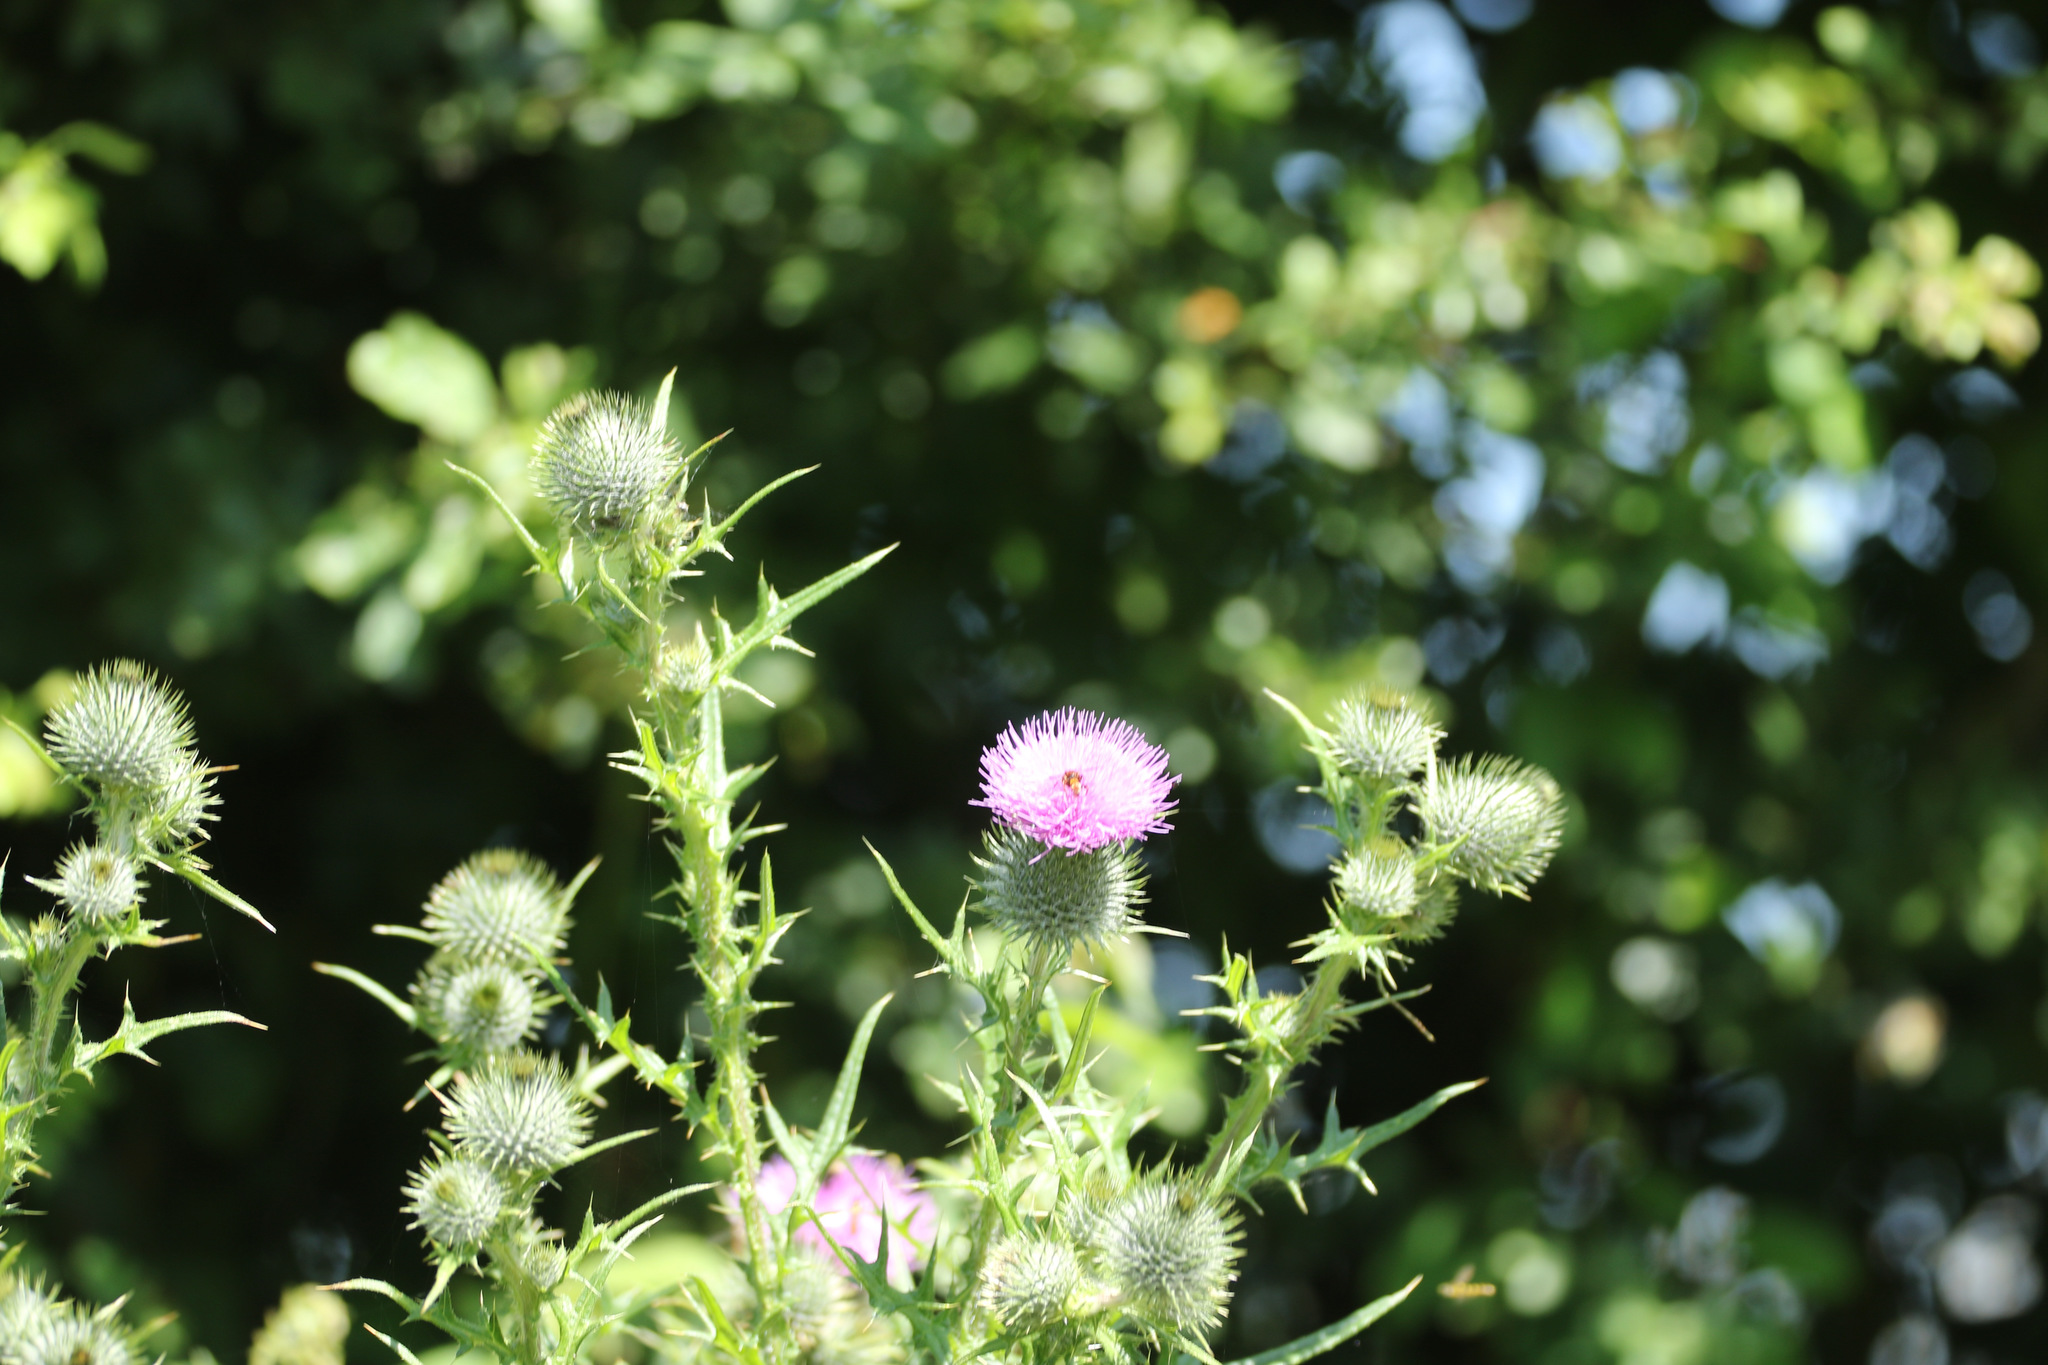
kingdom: Plantae
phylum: Tracheophyta
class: Magnoliopsida
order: Asterales
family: Asteraceae
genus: Cirsium
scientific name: Cirsium vulgare
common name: Bull thistle
